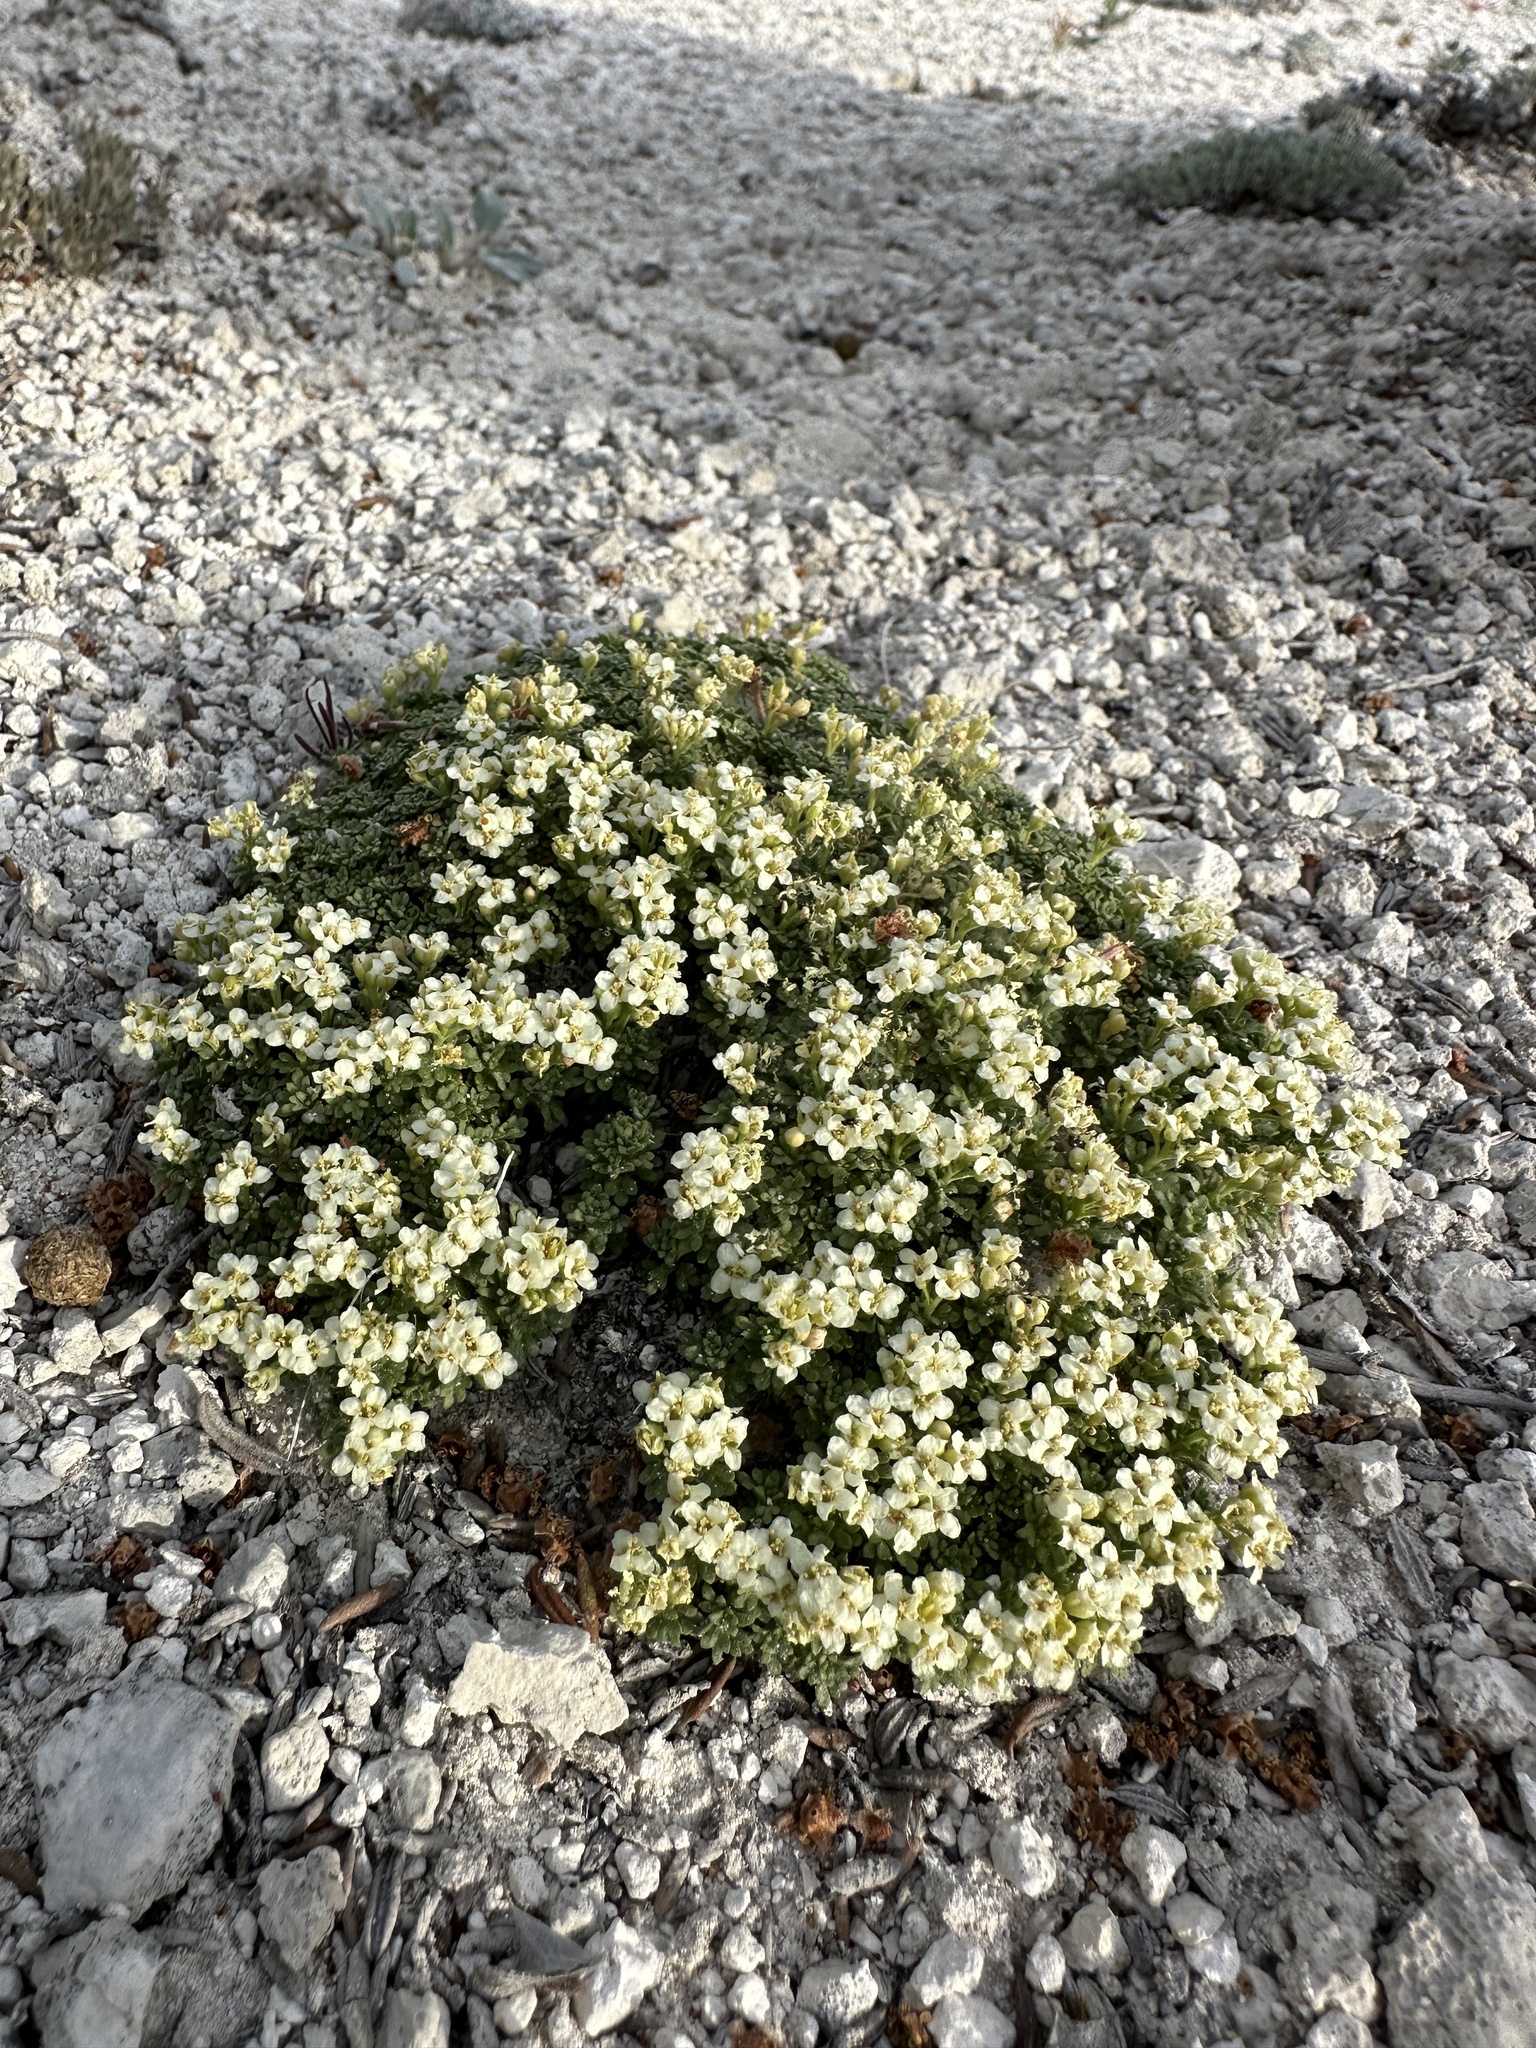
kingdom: Plantae
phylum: Tracheophyta
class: Magnoliopsida
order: Brassicales
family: Brassicaceae
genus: Lepidium
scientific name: Lepidium nanum
